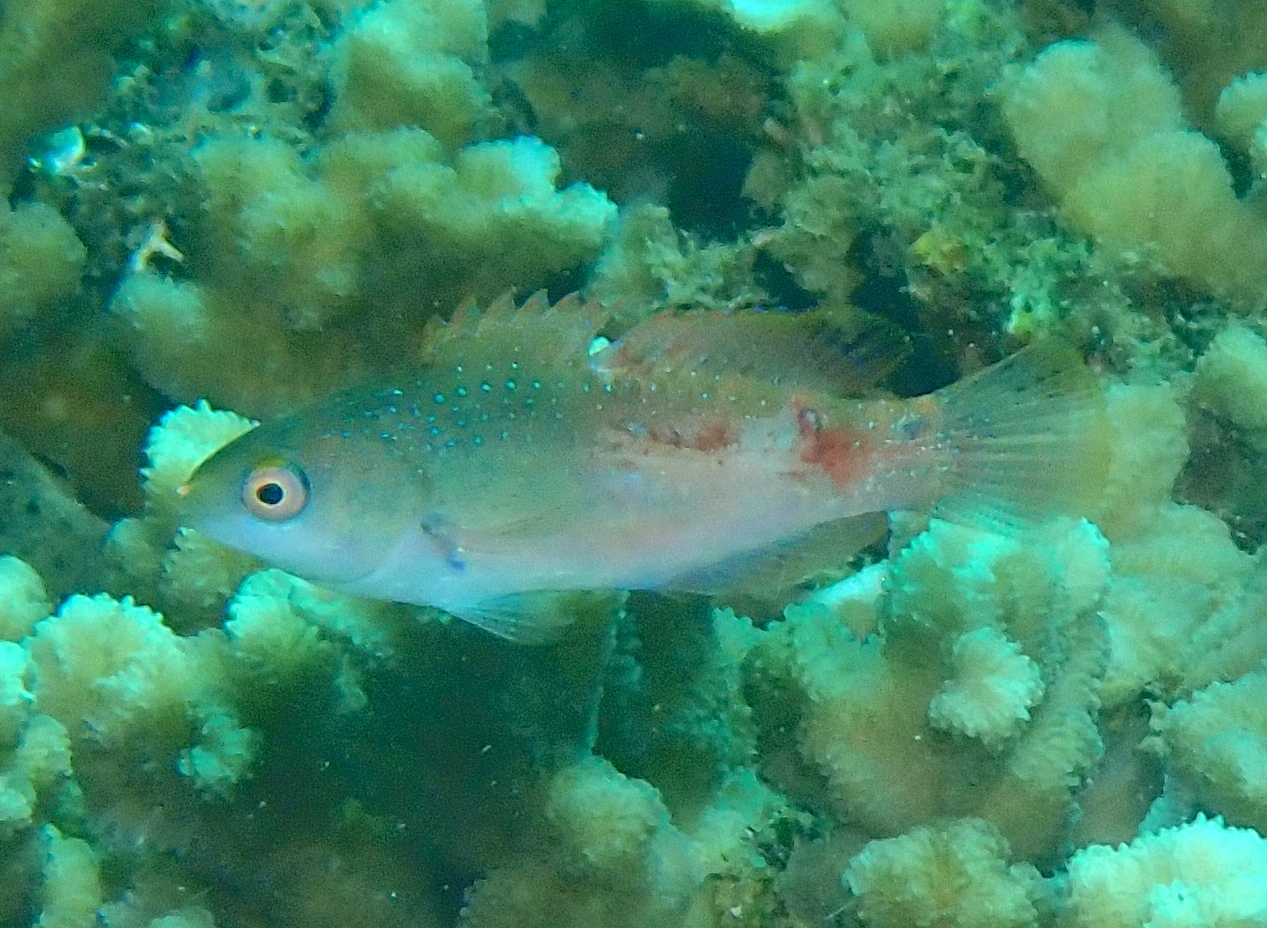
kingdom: Animalia
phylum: Chordata
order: Perciformes
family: Labridae
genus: Cirrhilabrus
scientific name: Cirrhilabrus cyanopleura
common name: Coralline wrasse
